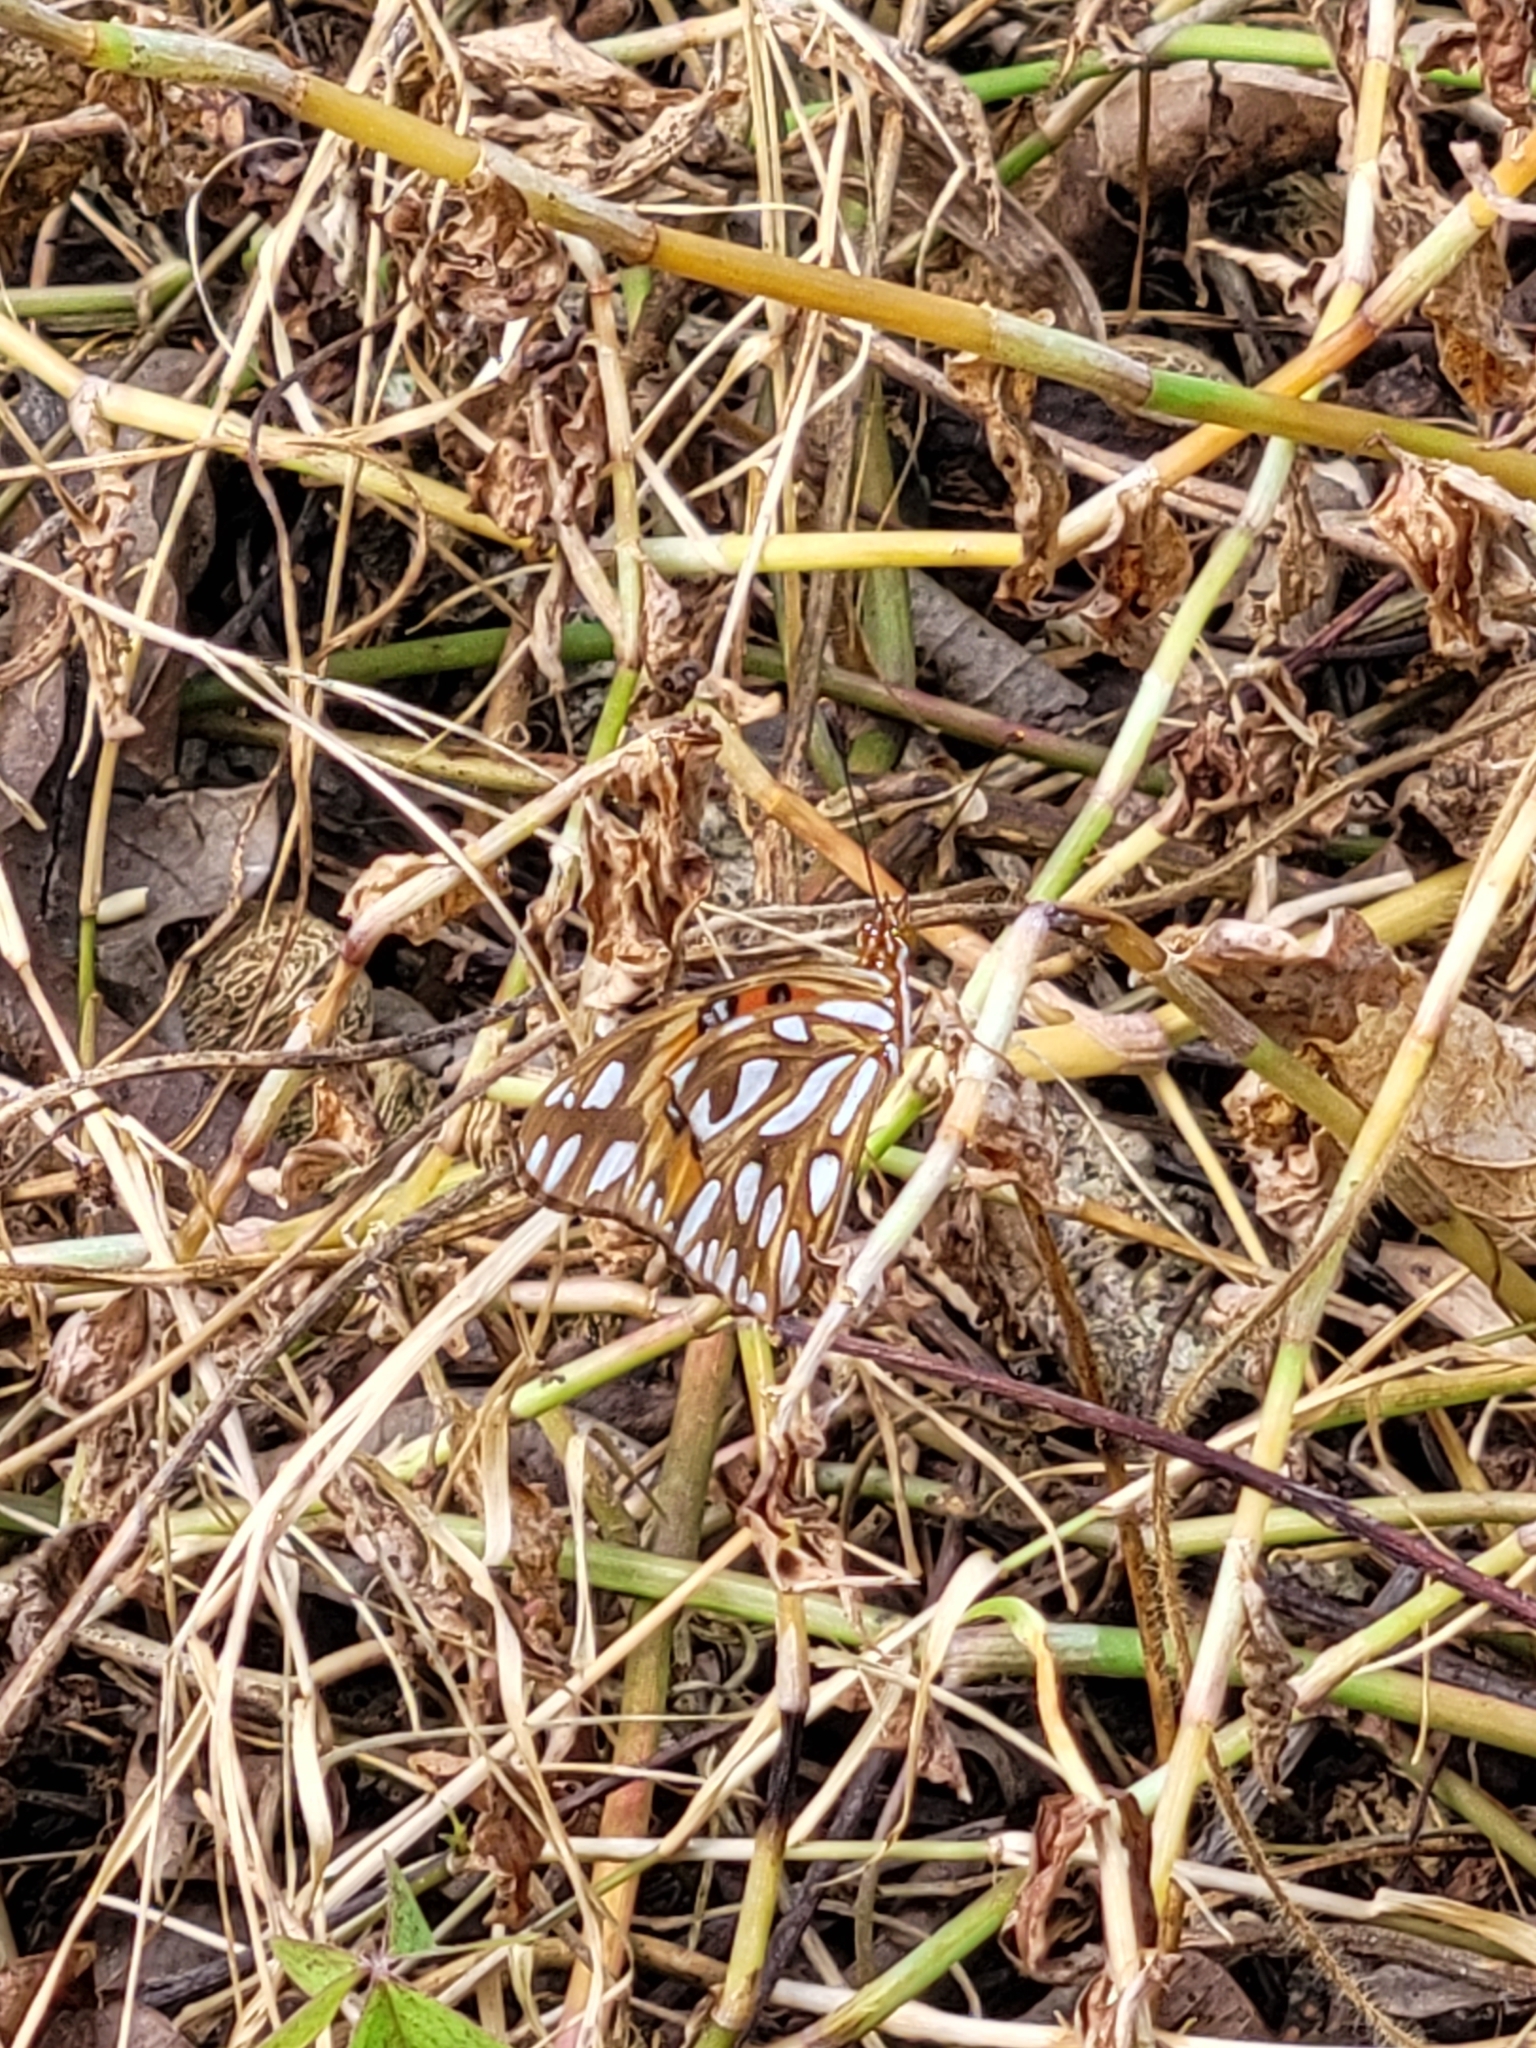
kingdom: Animalia
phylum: Arthropoda
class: Insecta
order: Lepidoptera
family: Nymphalidae
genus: Dione
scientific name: Dione vanillae
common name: Gulf fritillary
